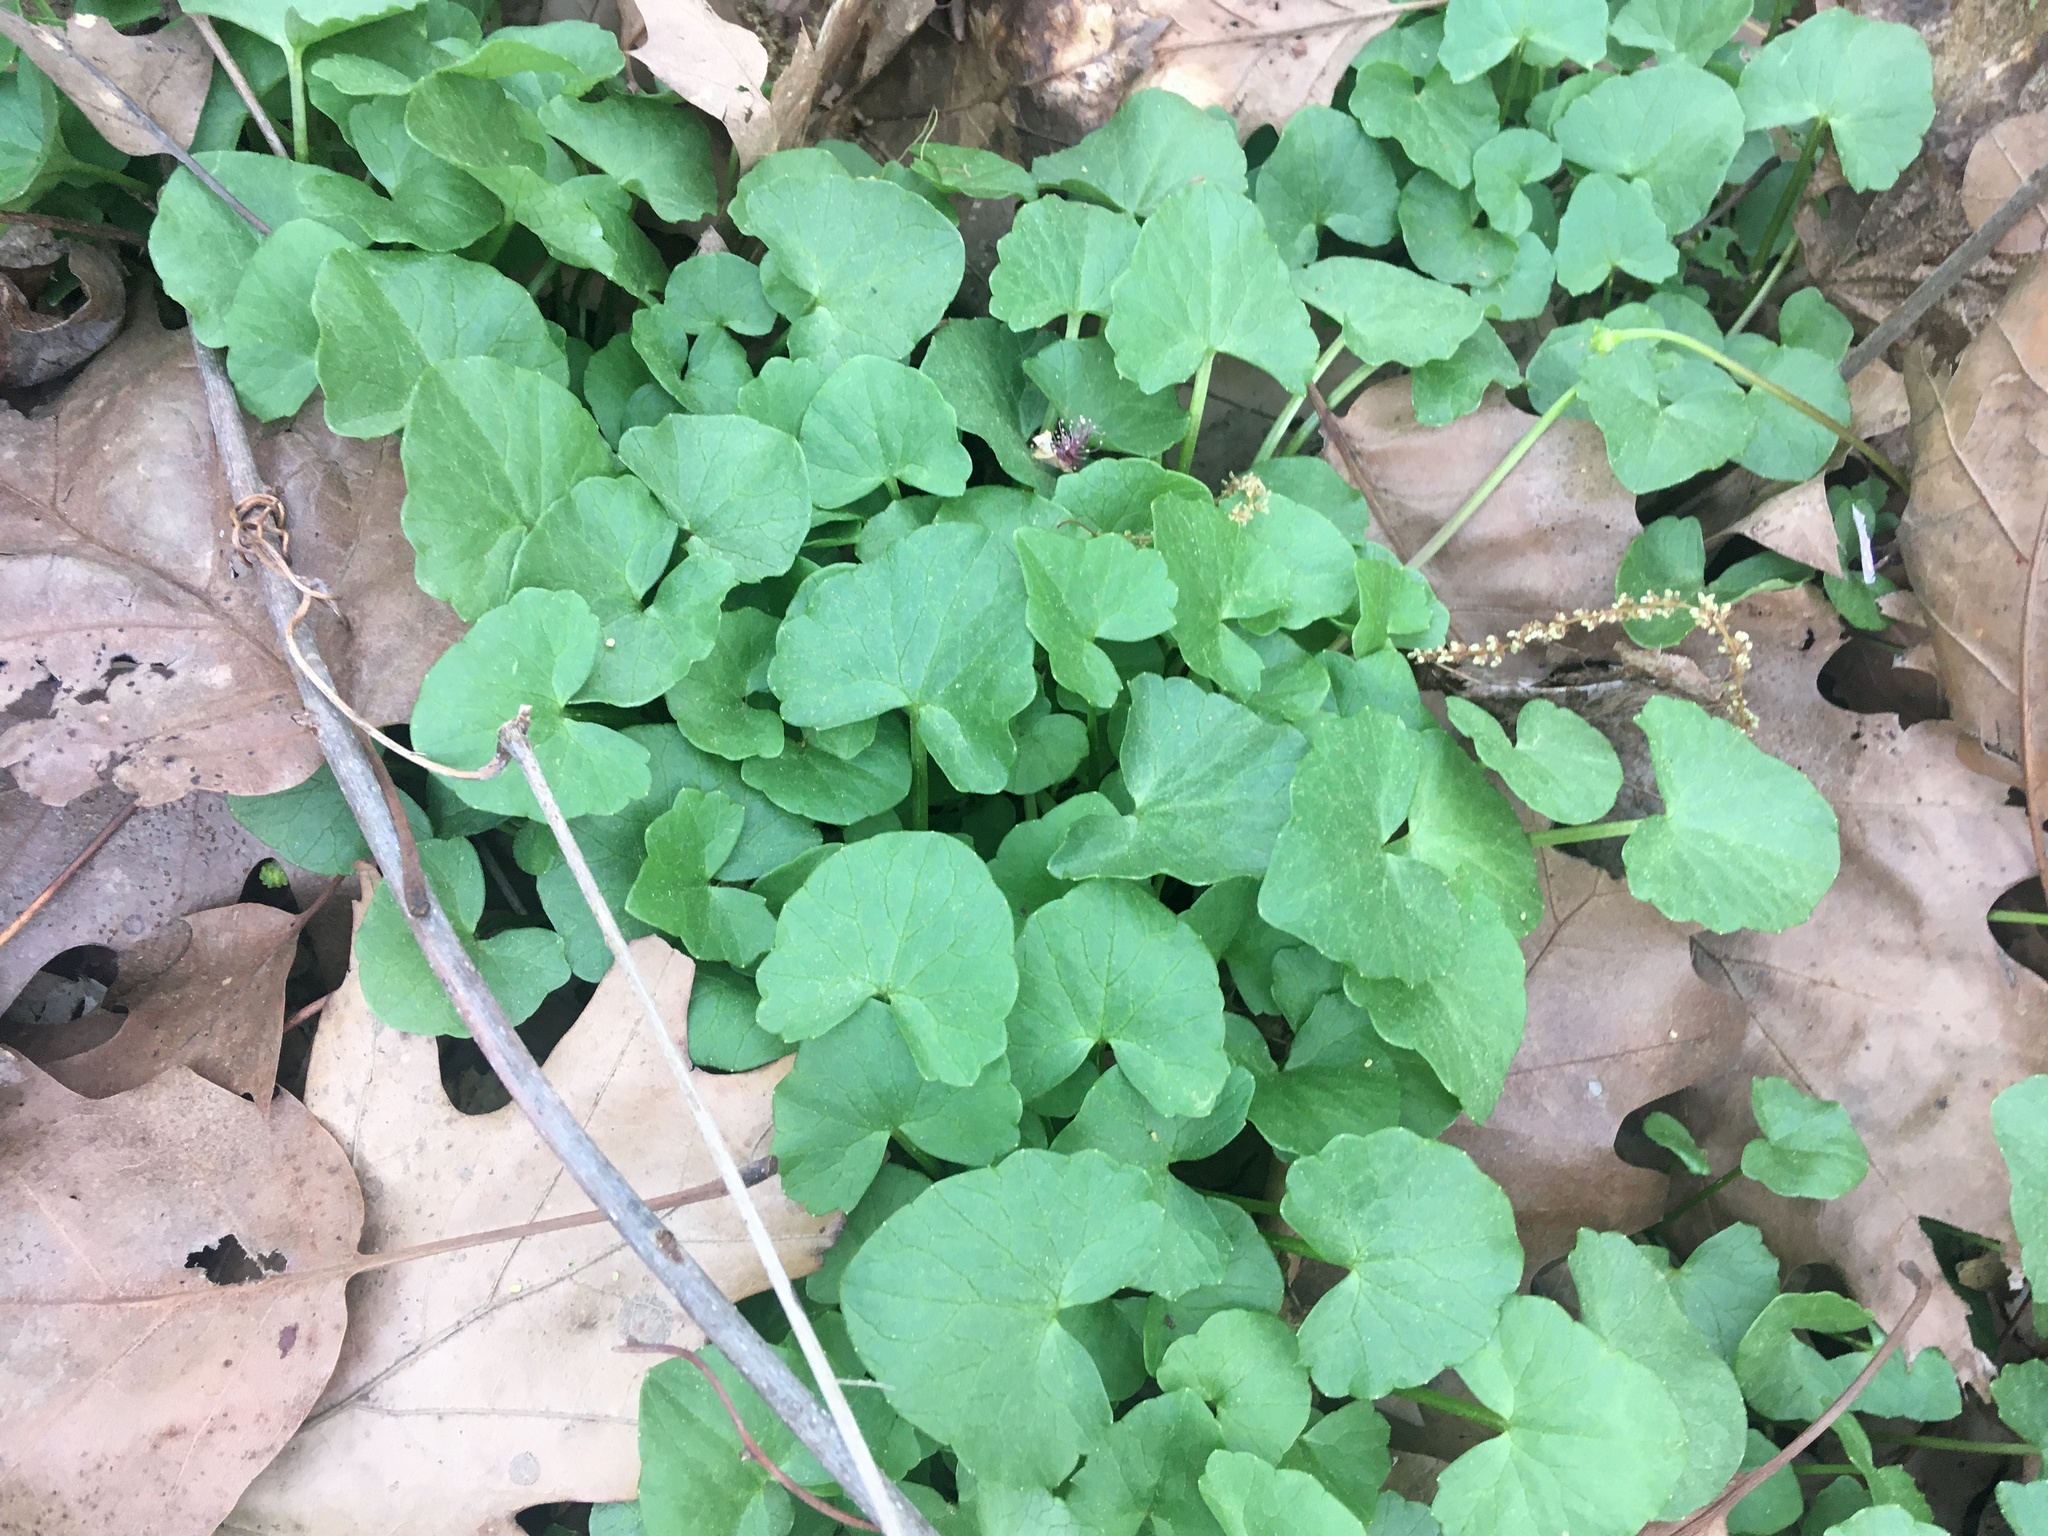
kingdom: Plantae
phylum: Tracheophyta
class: Magnoliopsida
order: Ranunculales
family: Ranunculaceae
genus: Ficaria
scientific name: Ficaria verna
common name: Lesser celandine
